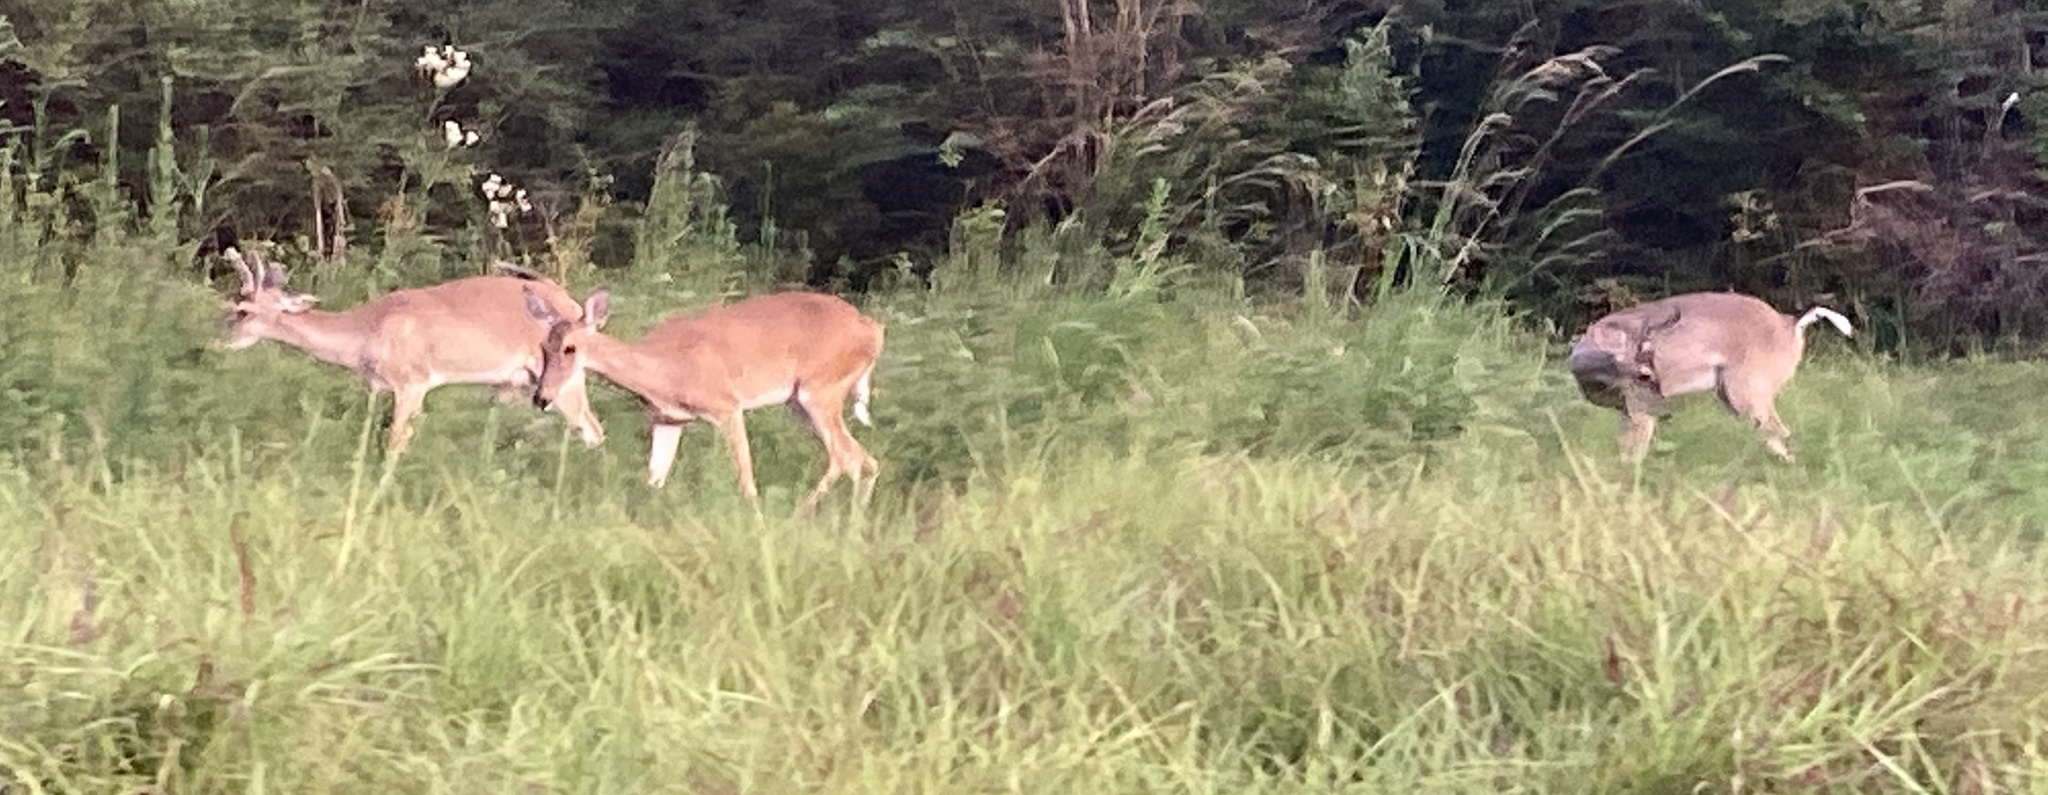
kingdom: Animalia
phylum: Chordata
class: Mammalia
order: Artiodactyla
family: Cervidae
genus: Odocoileus
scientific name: Odocoileus virginianus
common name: White-tailed deer
